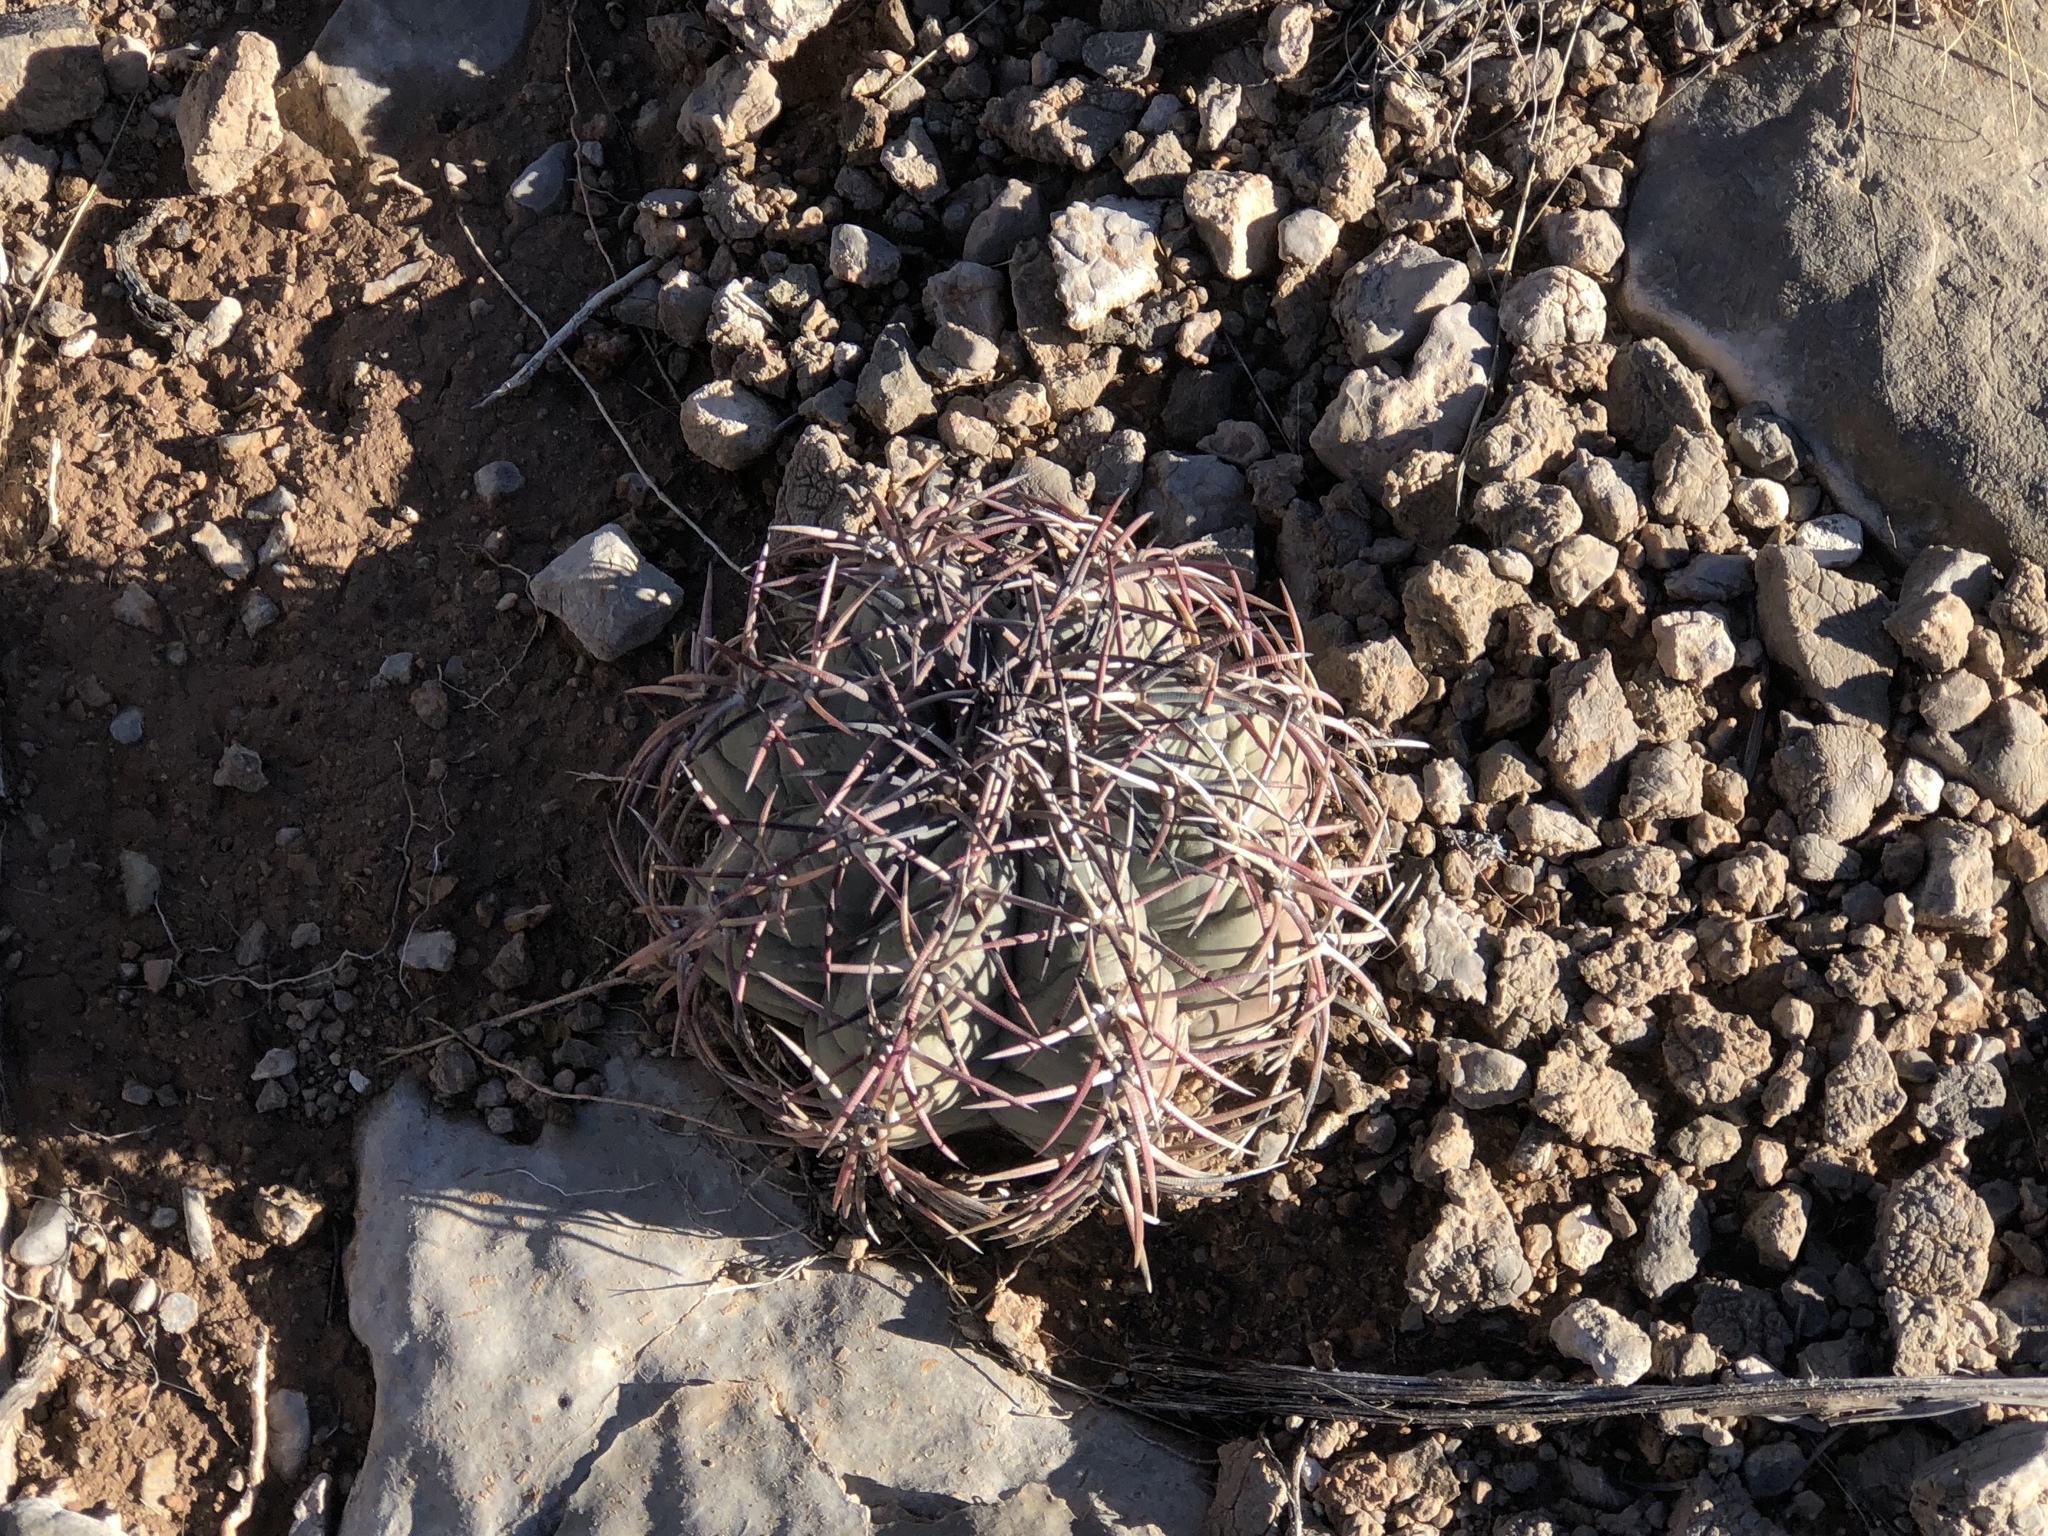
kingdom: Plantae
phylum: Tracheophyta
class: Magnoliopsida
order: Caryophyllales
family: Cactaceae
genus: Echinocactus
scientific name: Echinocactus horizonthalonius
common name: Devilshead
